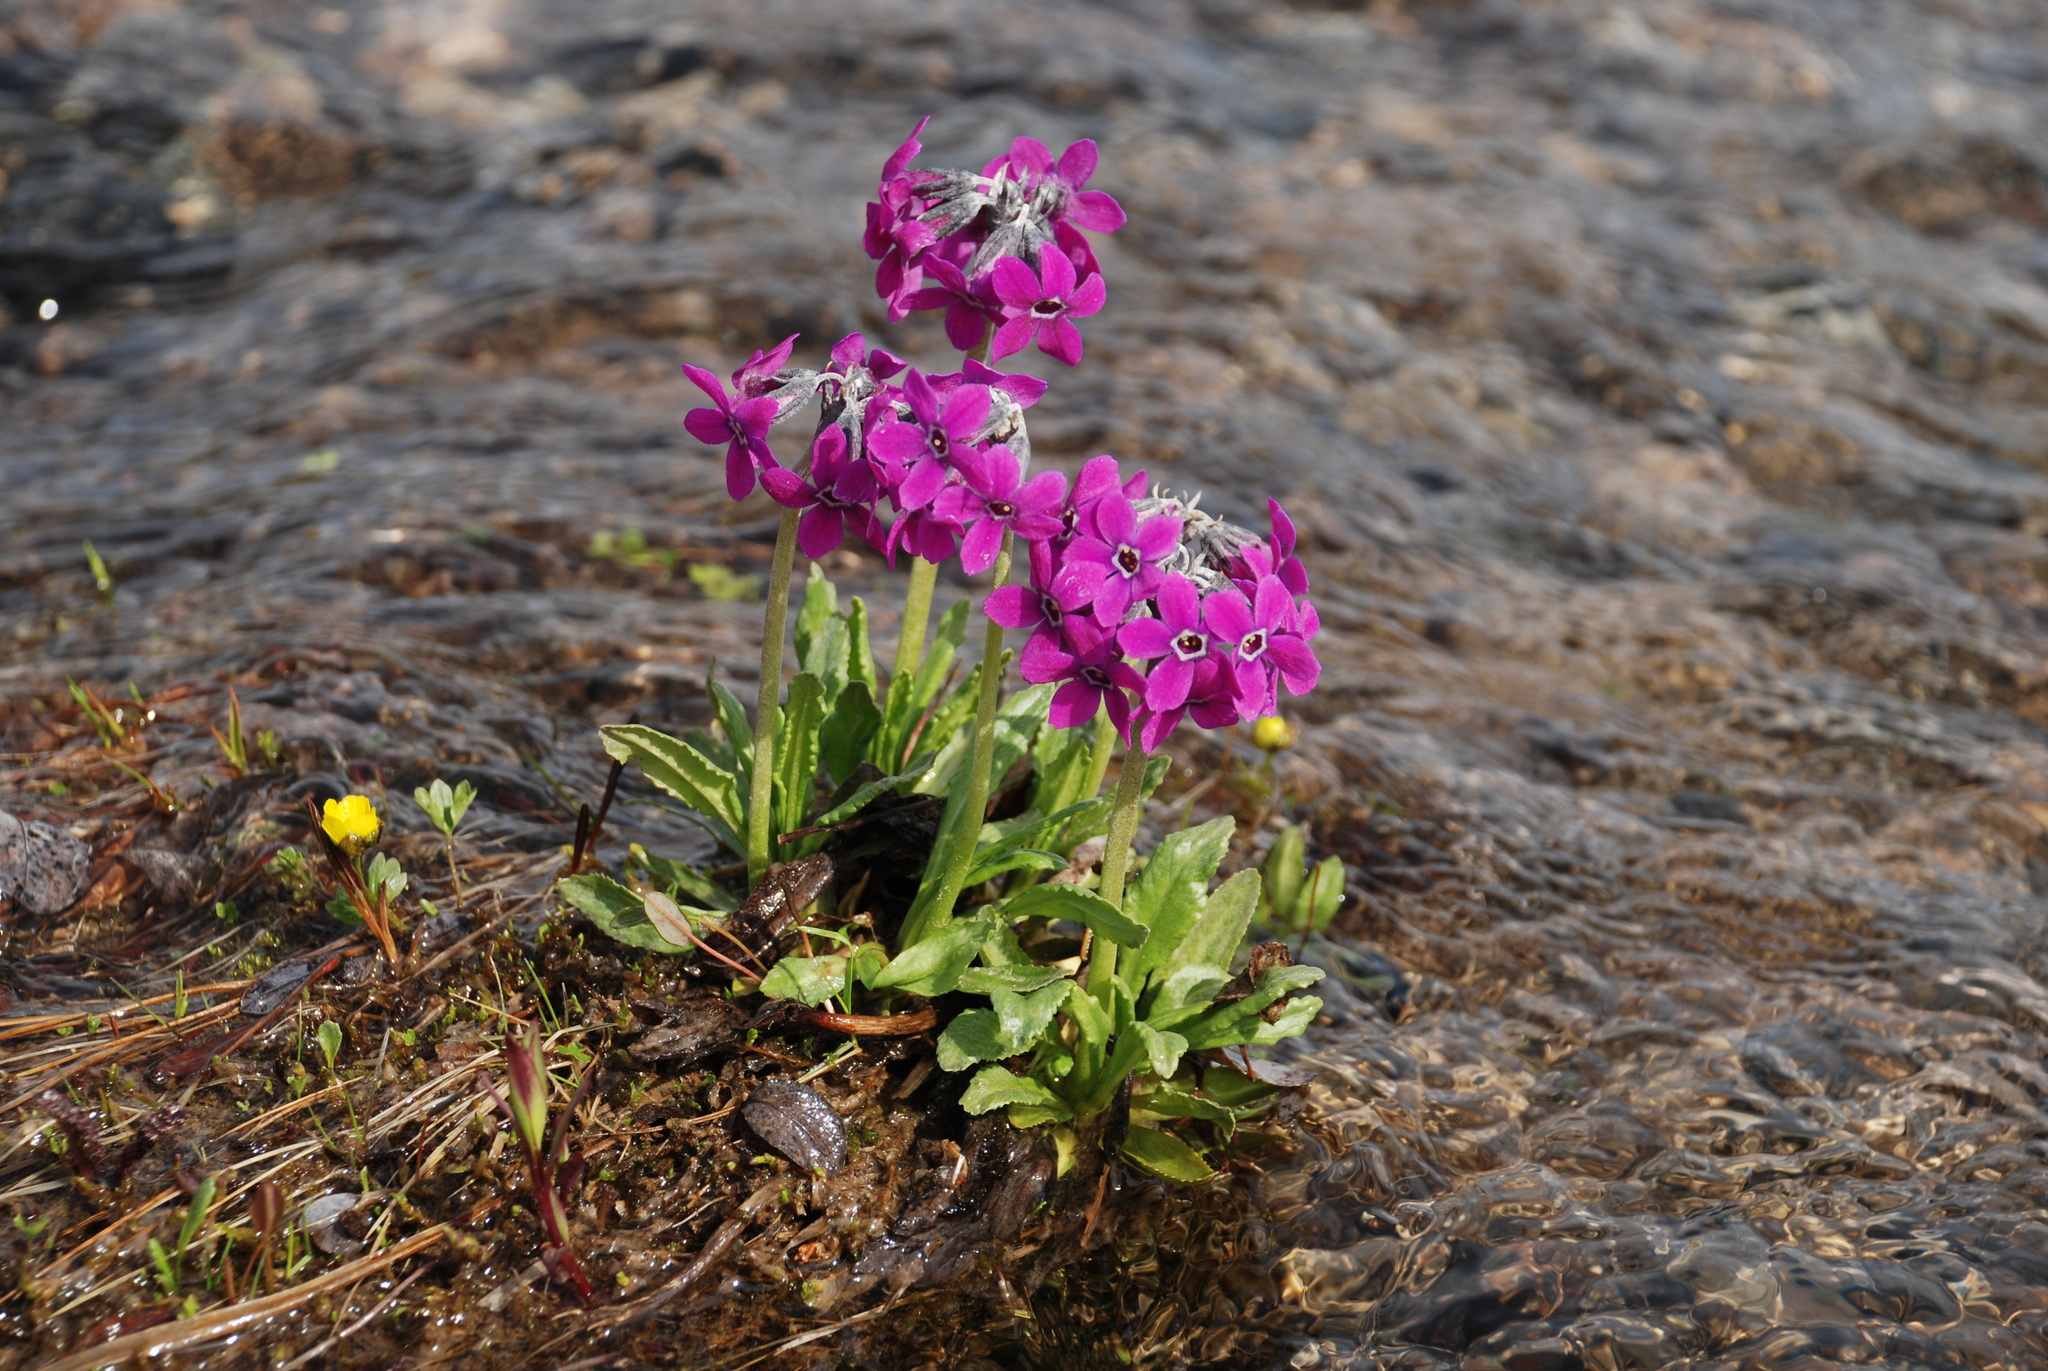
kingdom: Plantae
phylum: Tracheophyta
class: Magnoliopsida
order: Ericales
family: Primulaceae
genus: Primula
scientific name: Primula pumila
